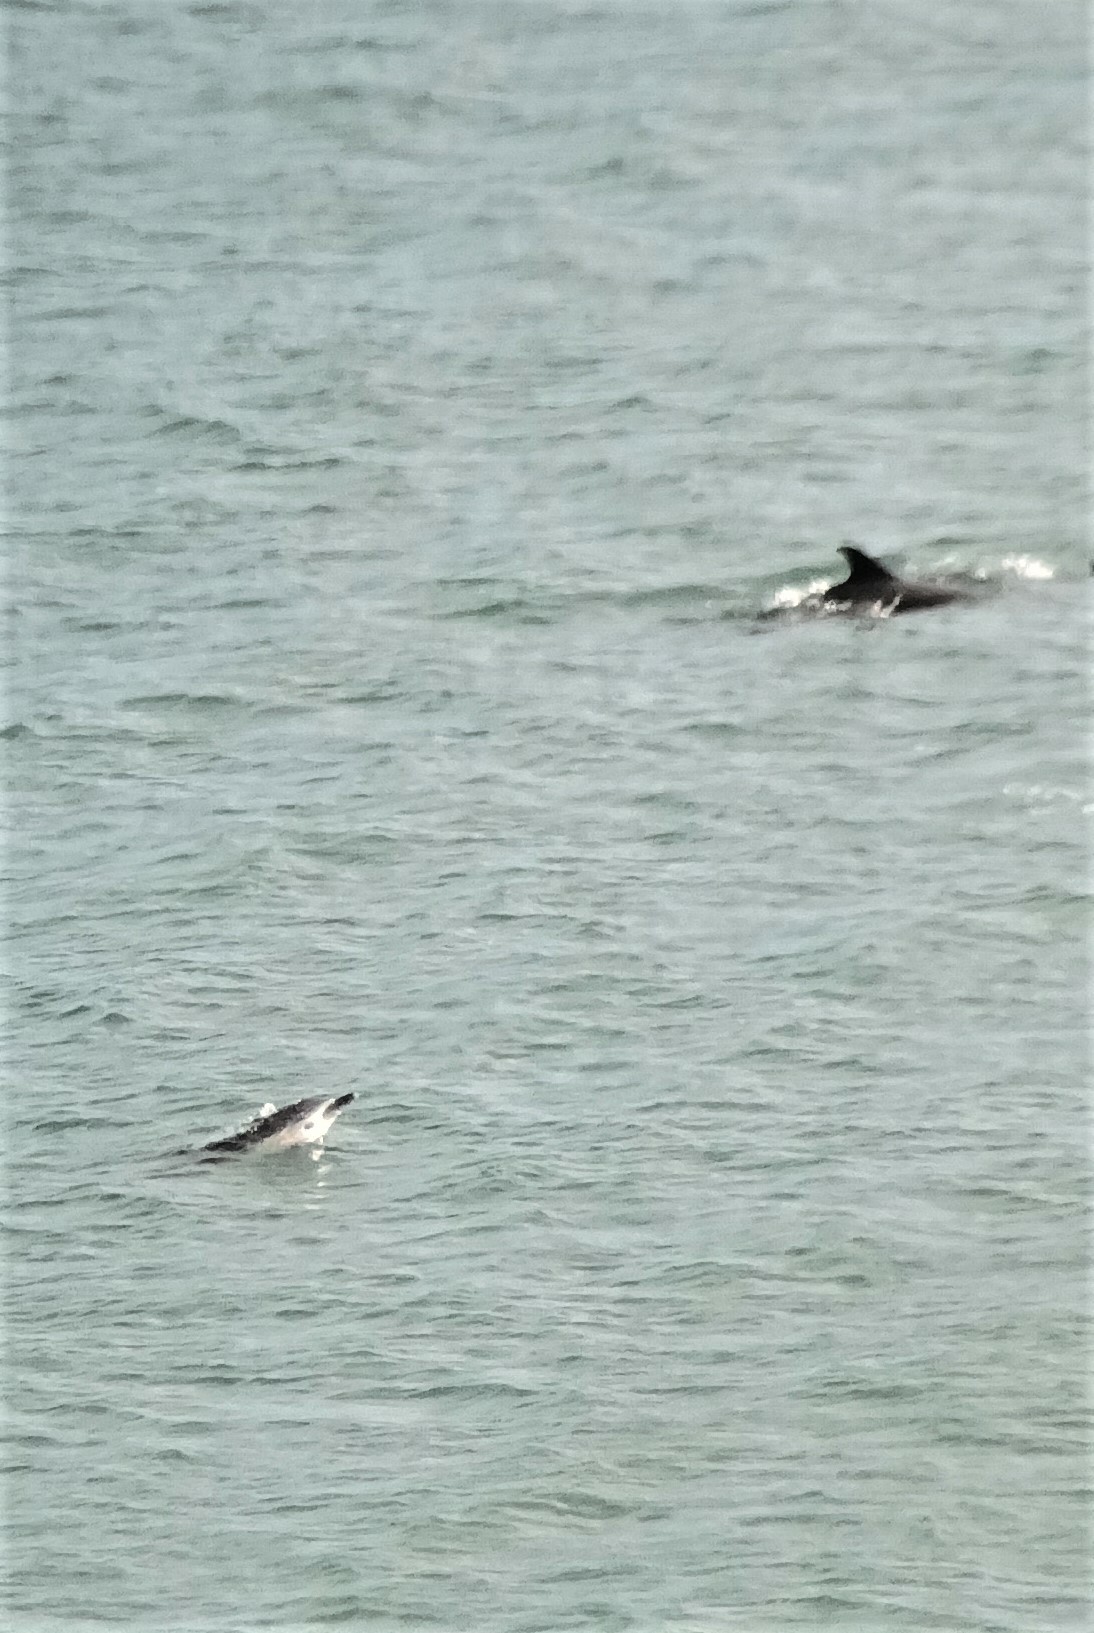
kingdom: Animalia
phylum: Chordata
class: Mammalia
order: Cetacea
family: Delphinidae
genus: Delphinus
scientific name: Delphinus delphis
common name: Common dolphin
